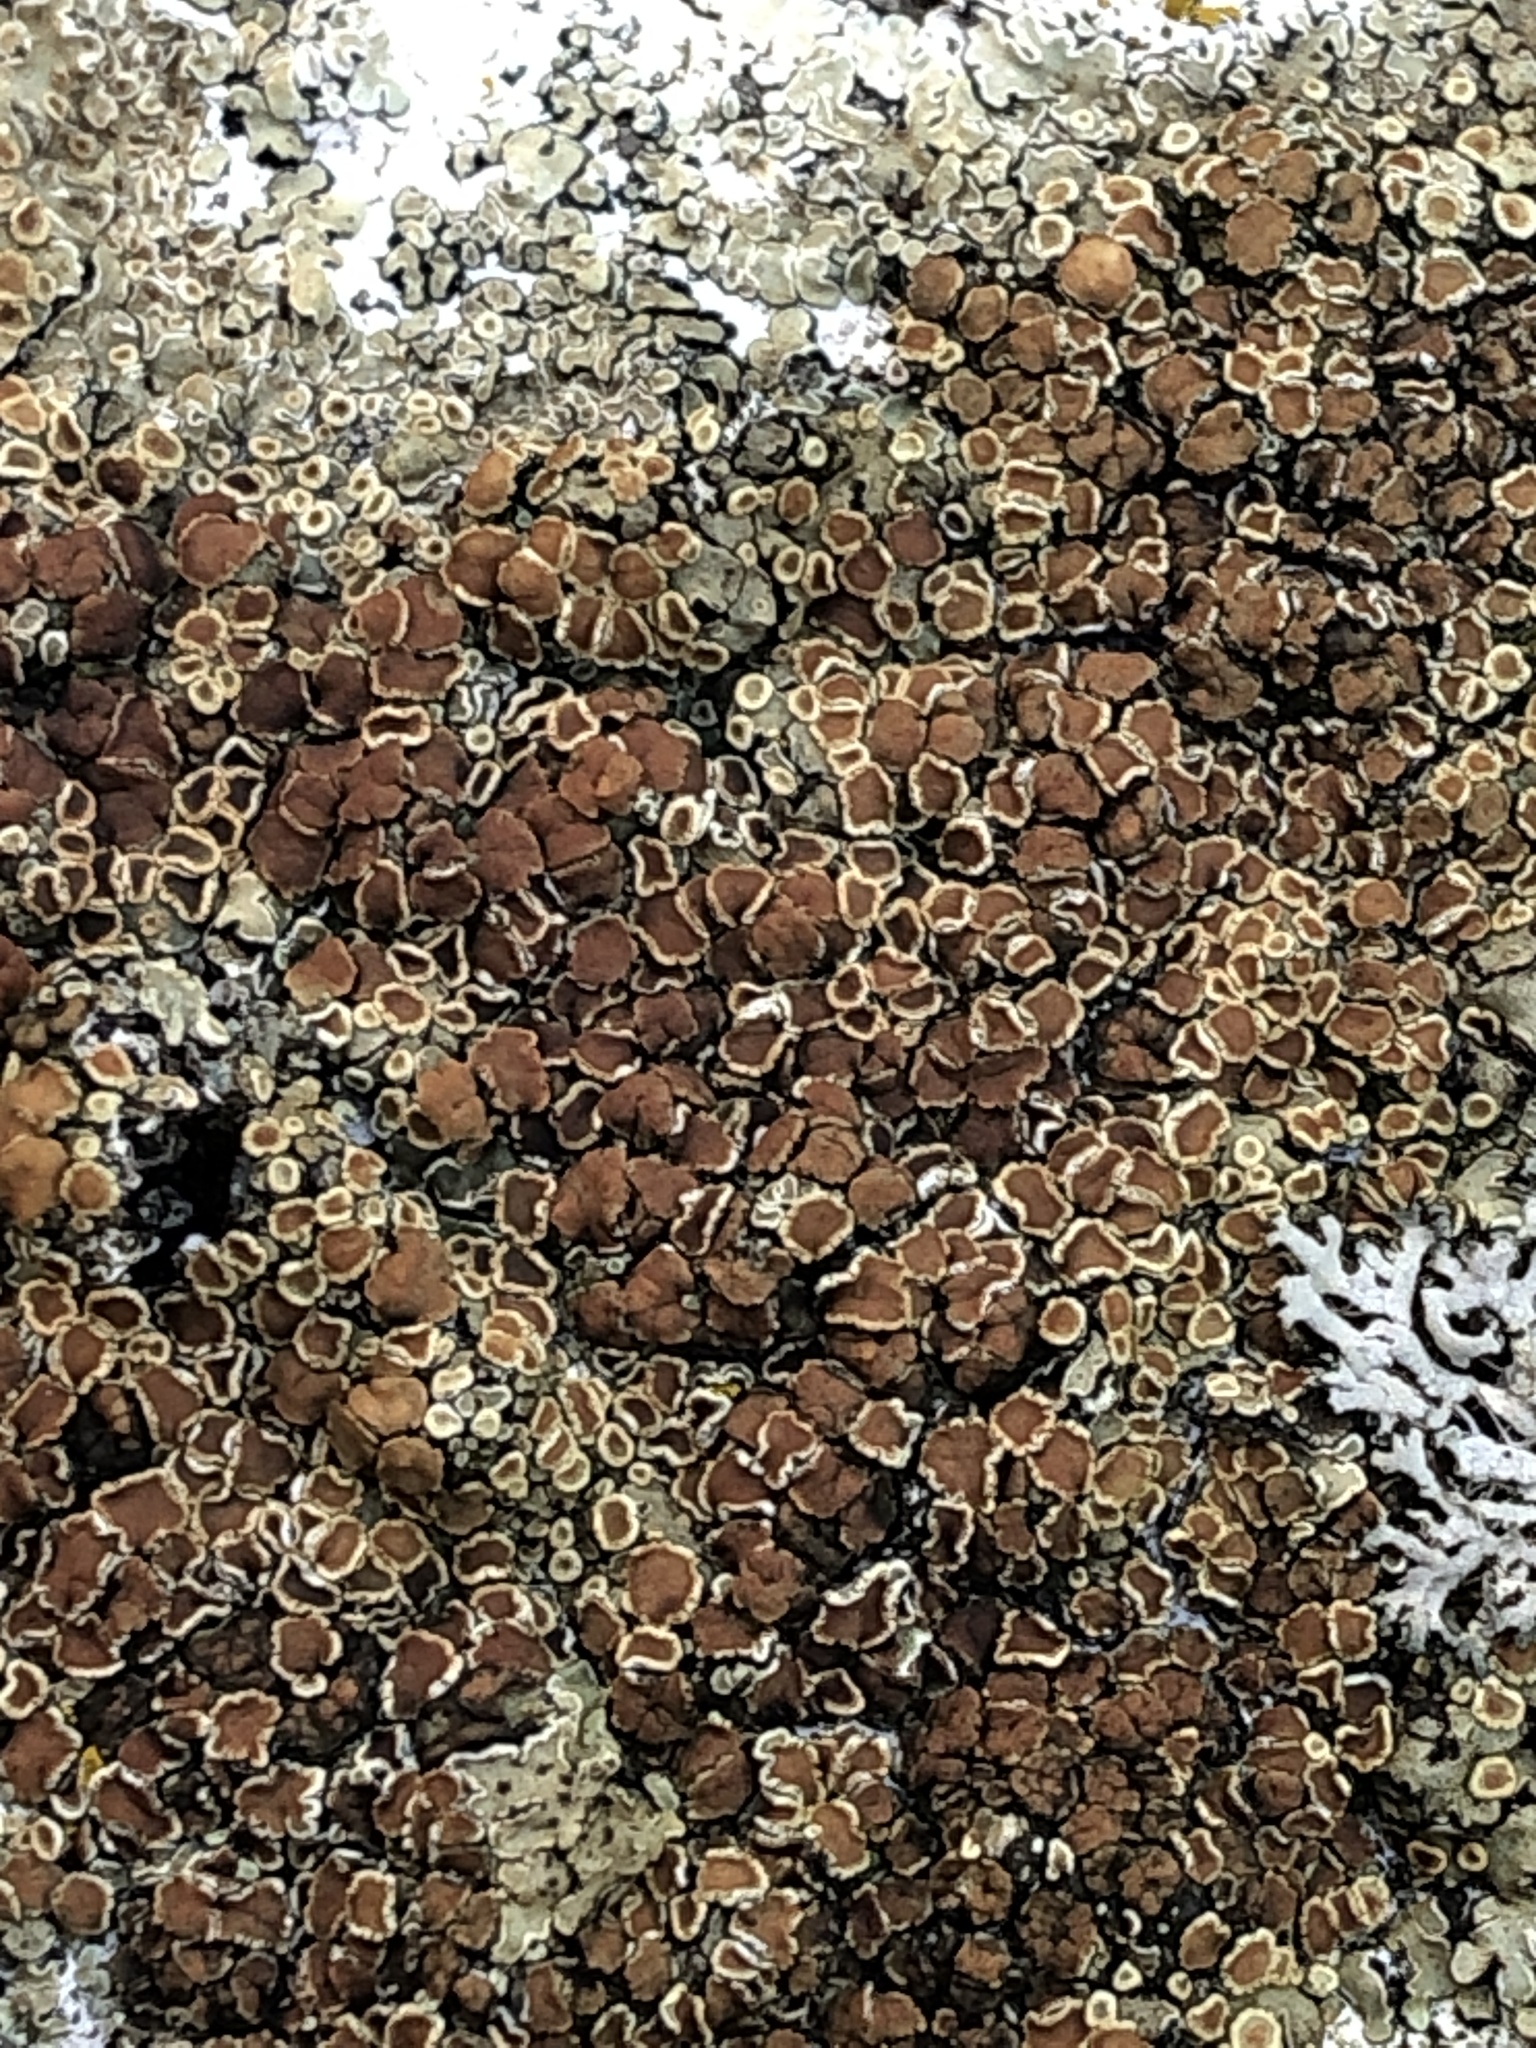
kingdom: Fungi
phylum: Ascomycota
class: Lecanoromycetes
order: Lecanorales
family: Lecanoraceae
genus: Protoparmeliopsis
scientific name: Protoparmeliopsis muralis
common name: Stonewall rim lichen
